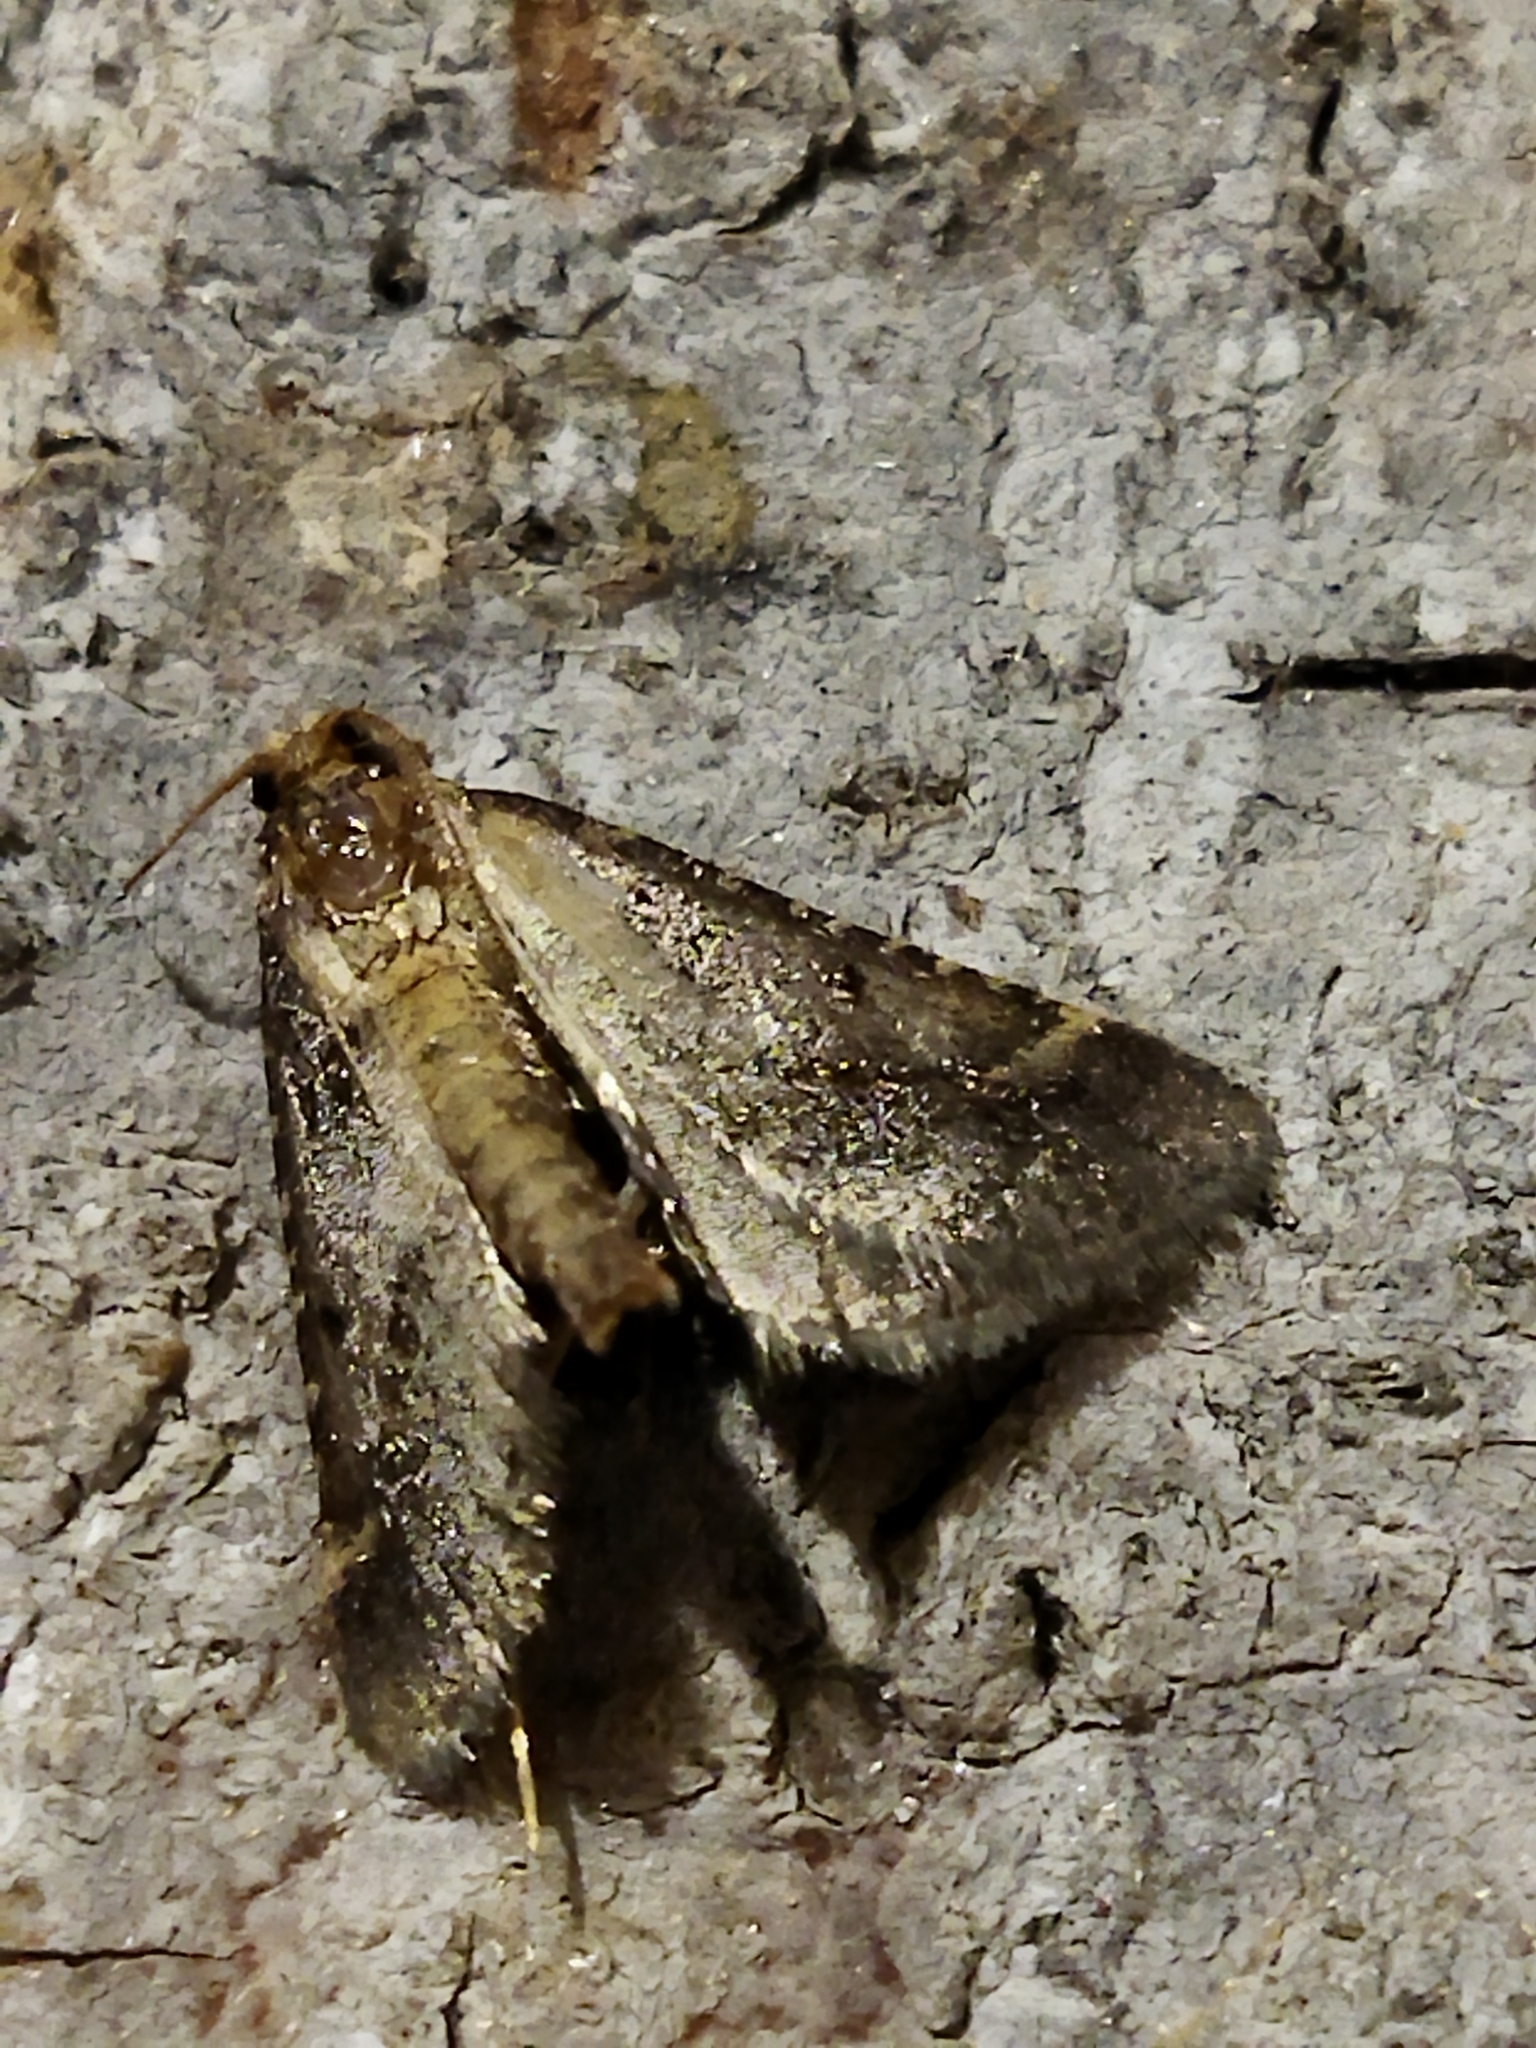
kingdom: Animalia
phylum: Arthropoda
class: Insecta
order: Lepidoptera
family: Pyralidae
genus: Stemmatophora
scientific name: Stemmatophora brunnealis
